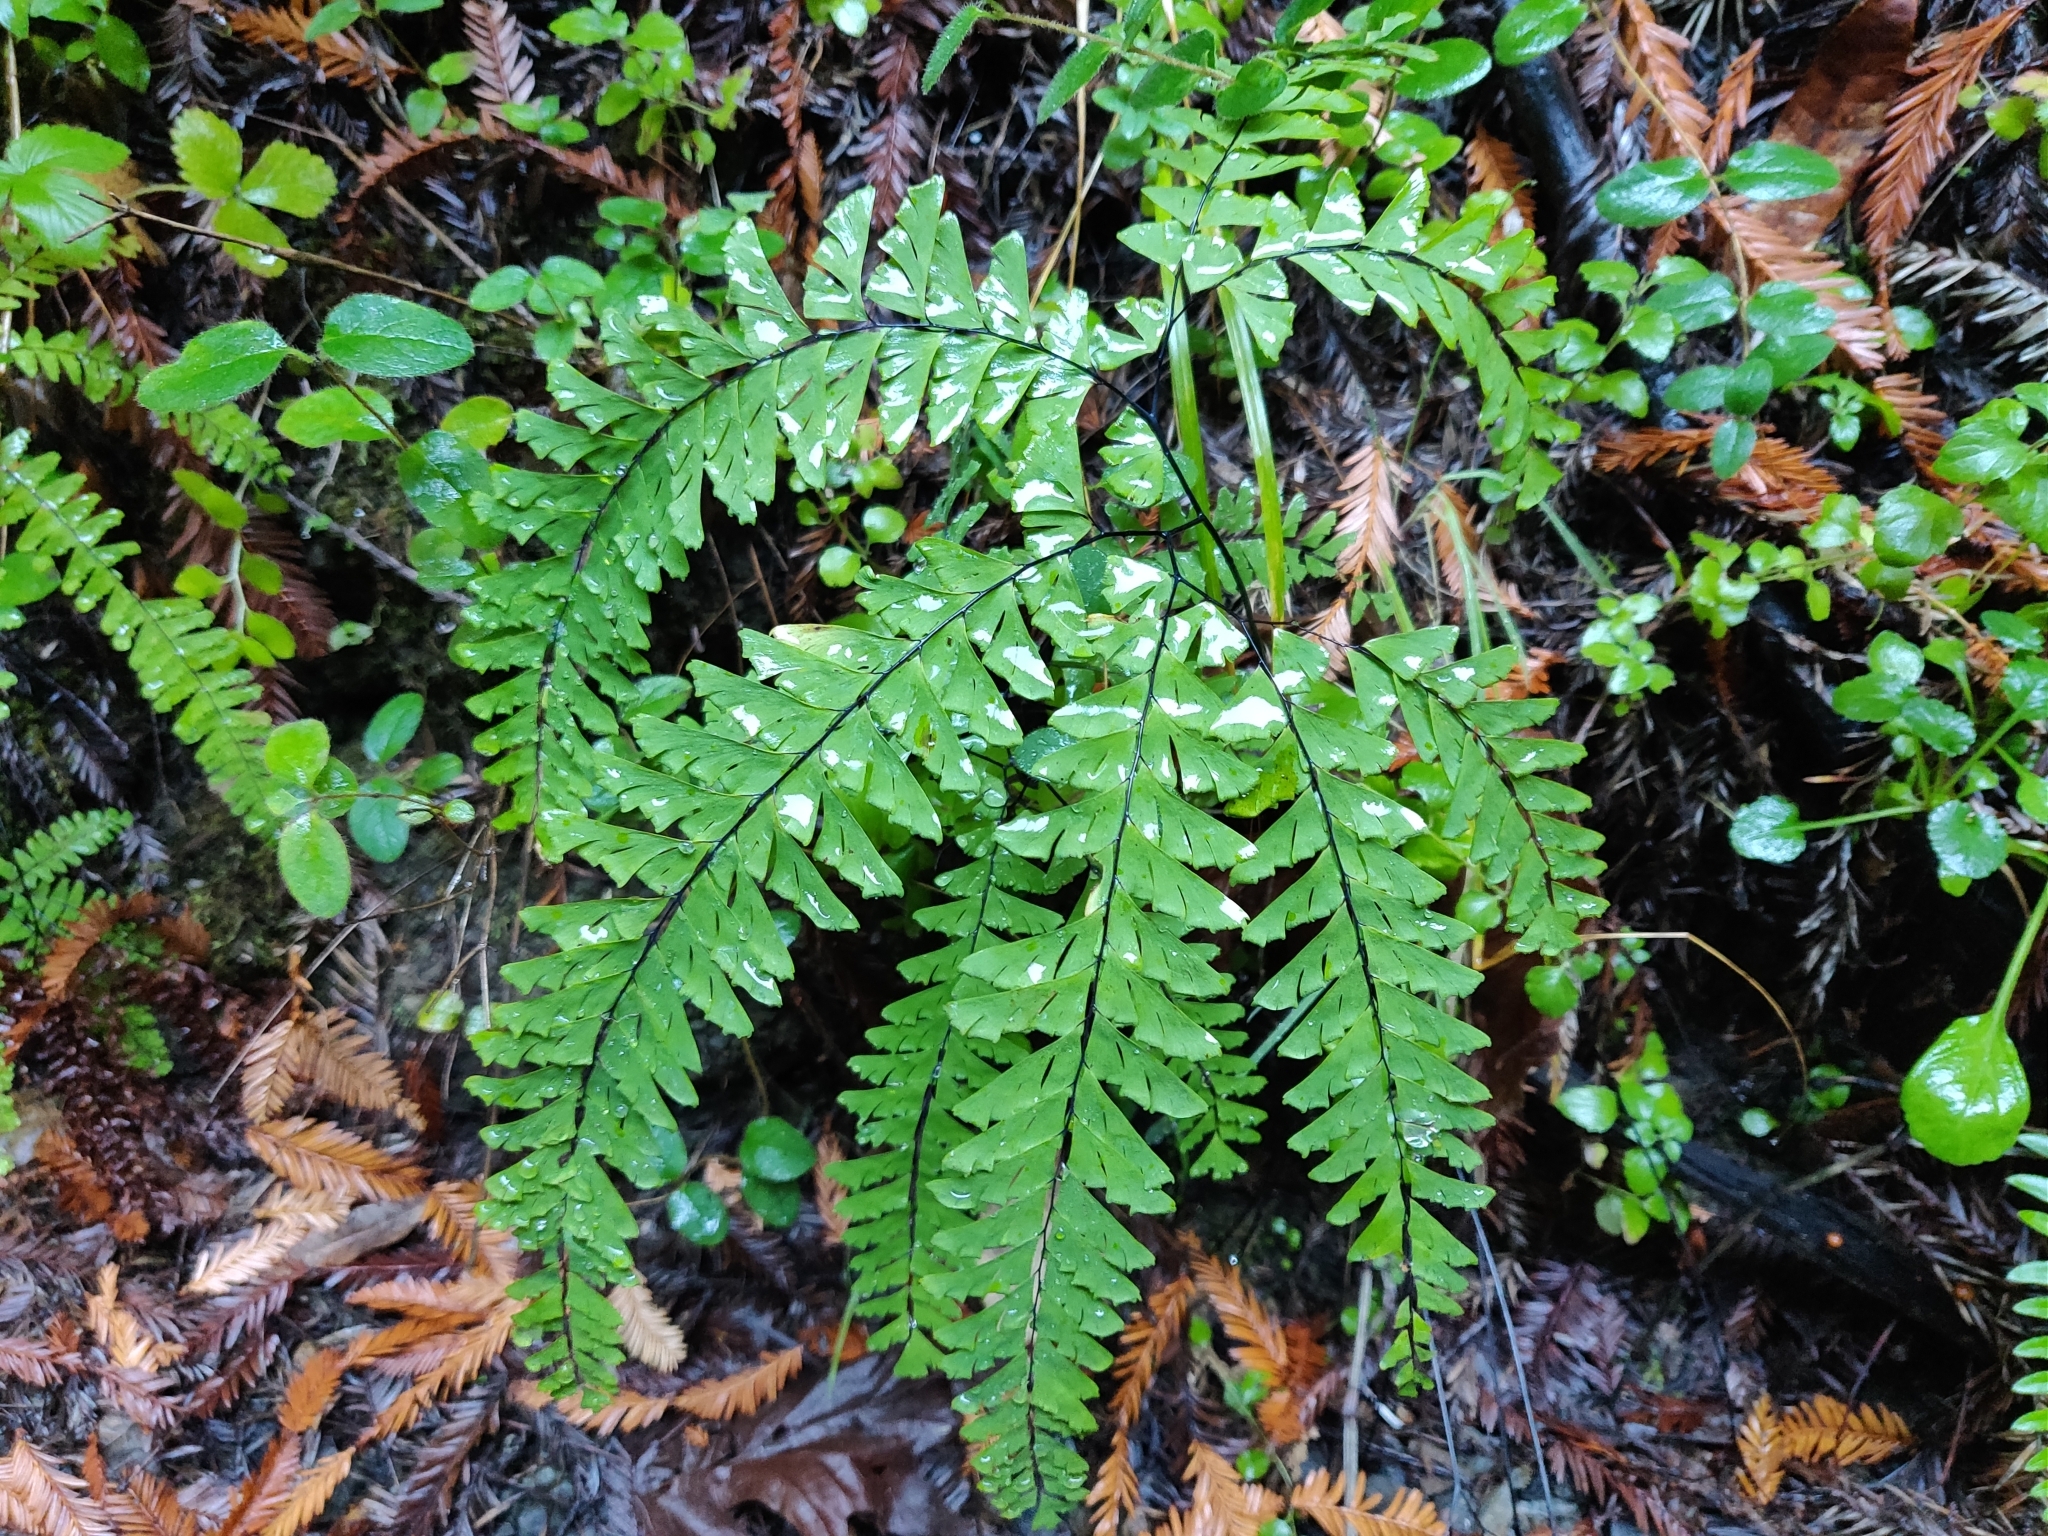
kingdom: Plantae
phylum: Tracheophyta
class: Polypodiopsida
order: Polypodiales
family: Pteridaceae
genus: Adiantum
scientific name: Adiantum aleuticum
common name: Aleutian maidenhair fern
